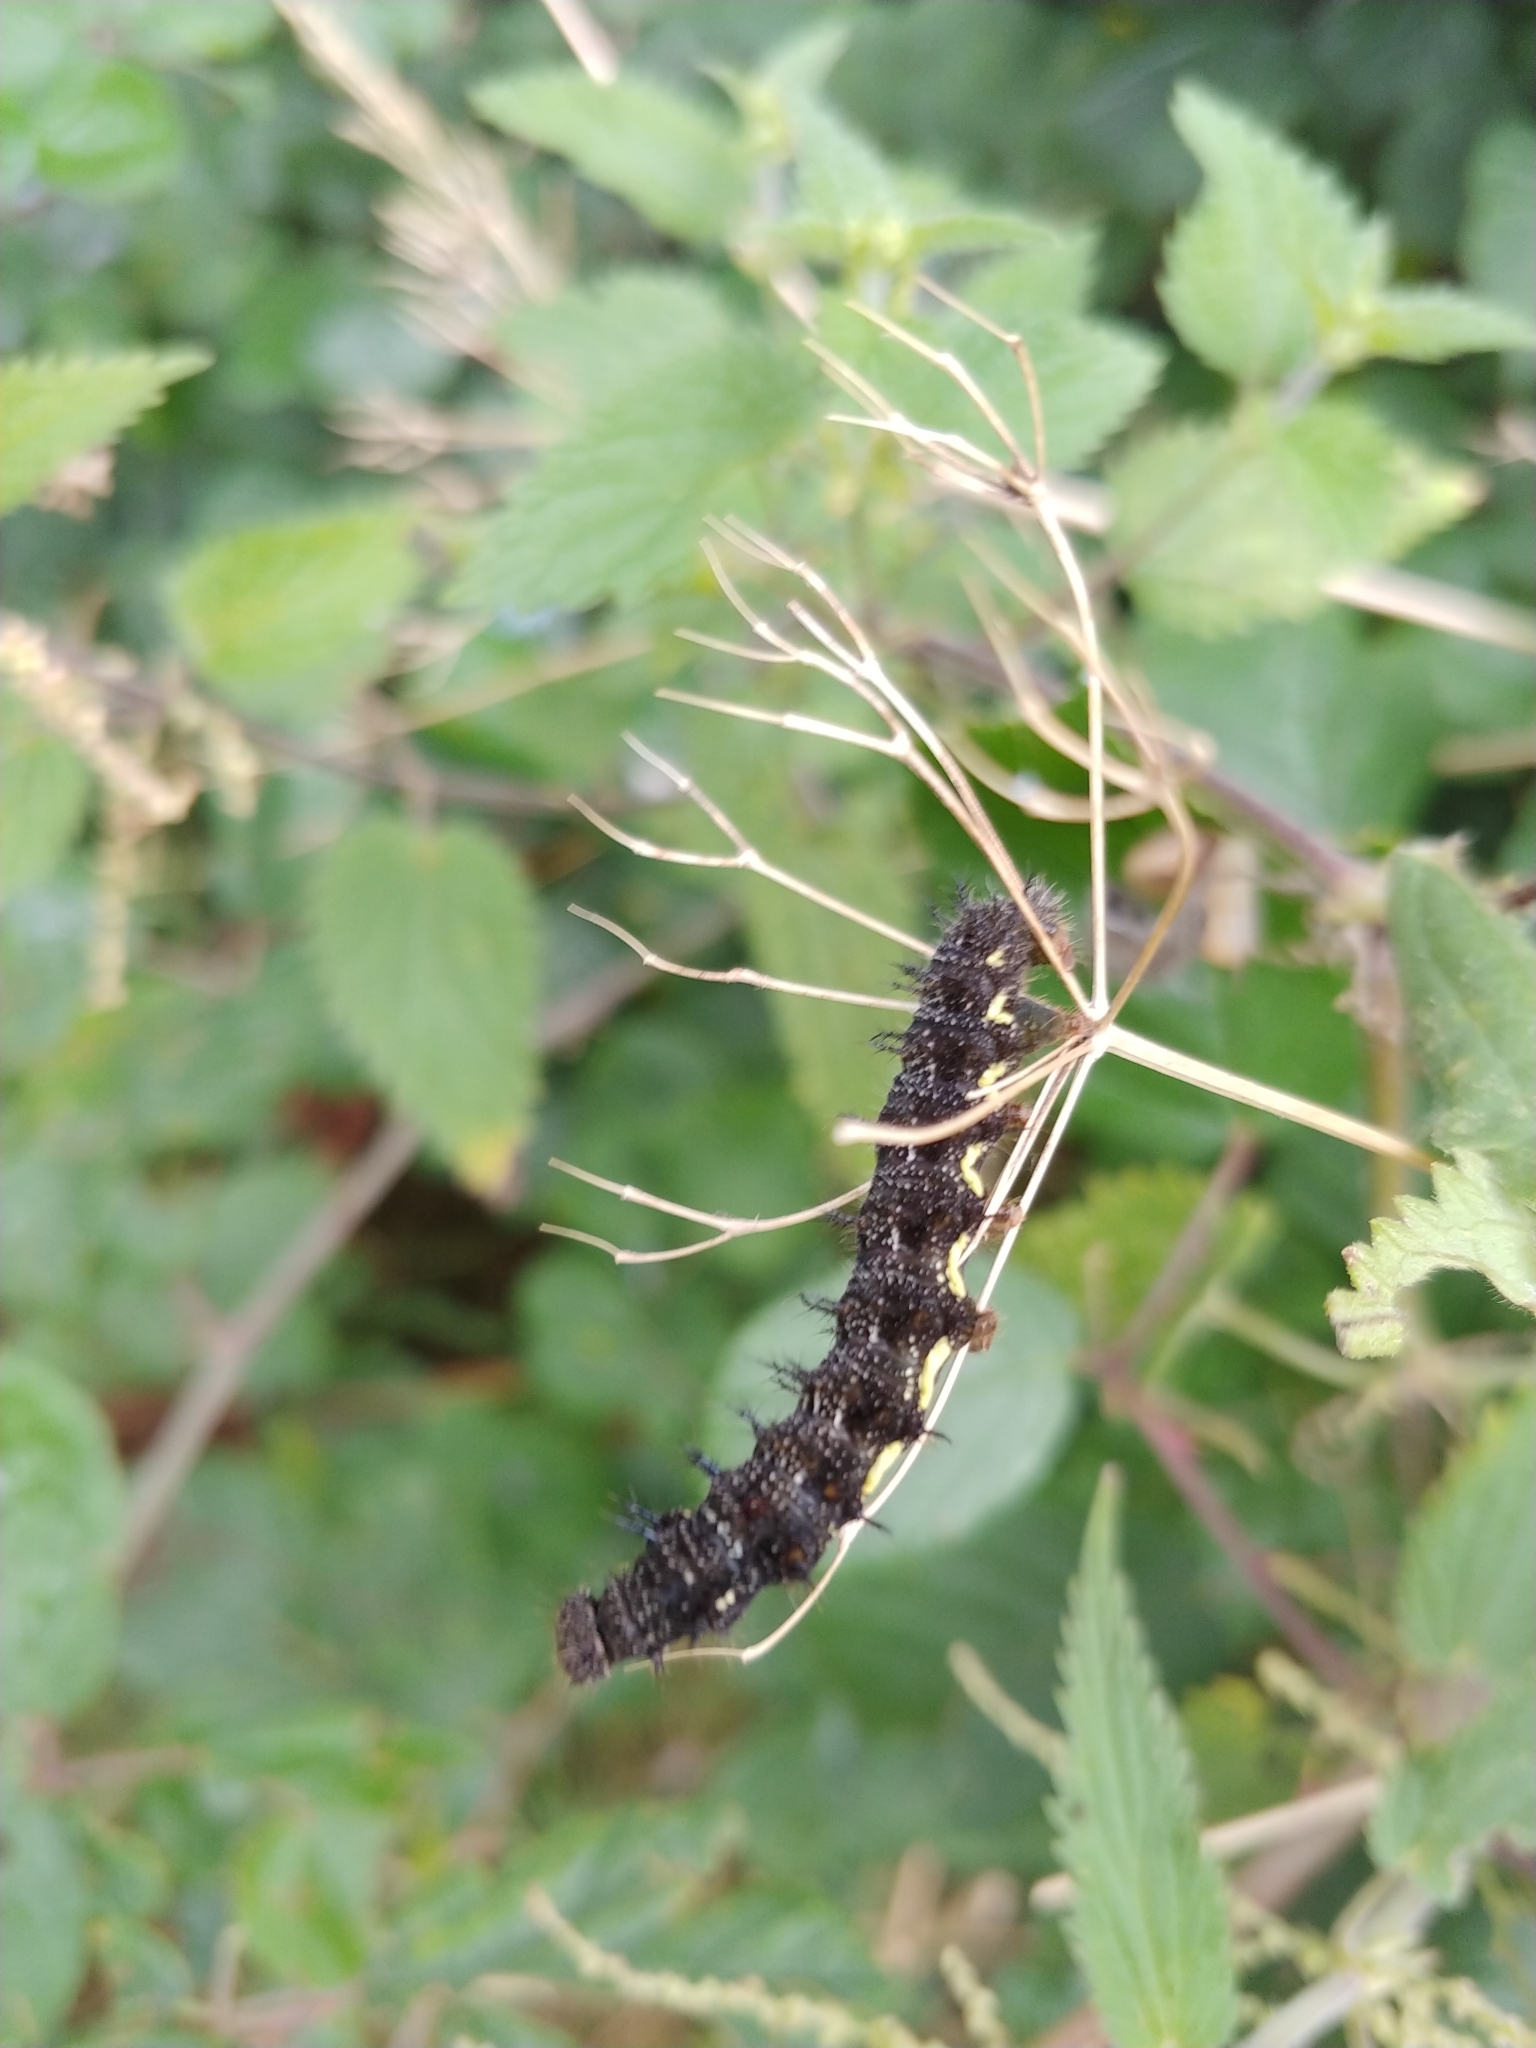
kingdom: Animalia
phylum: Arthropoda
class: Insecta
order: Lepidoptera
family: Nymphalidae
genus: Vanessa
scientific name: Vanessa atalanta
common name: Red admiral
